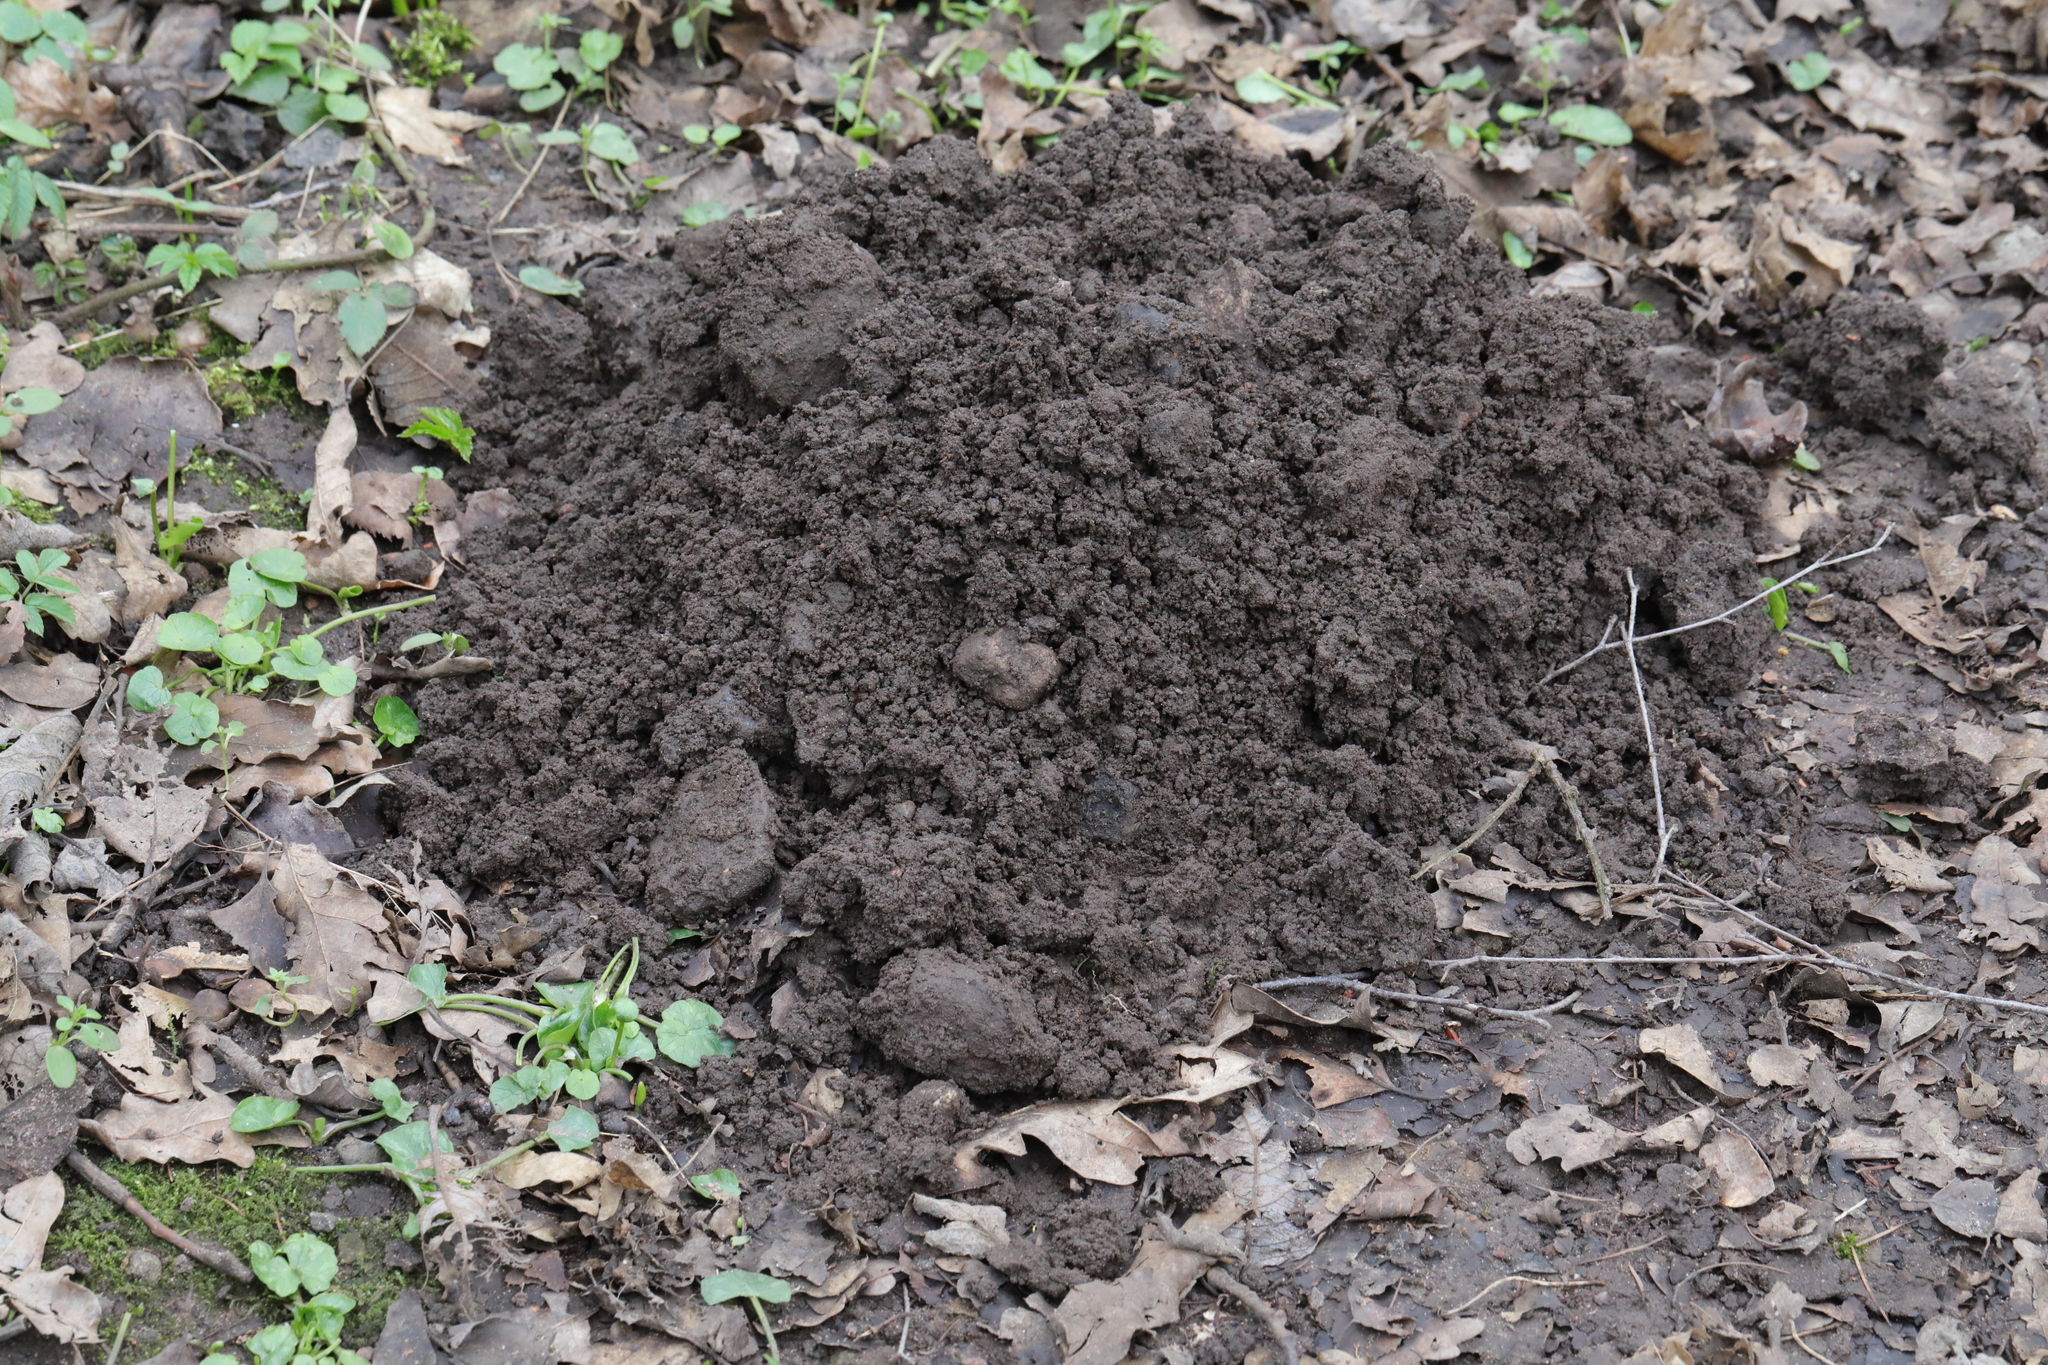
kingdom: Animalia
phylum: Chordata
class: Mammalia
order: Soricomorpha
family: Talpidae
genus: Talpa
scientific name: Talpa europaea
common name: European mole
